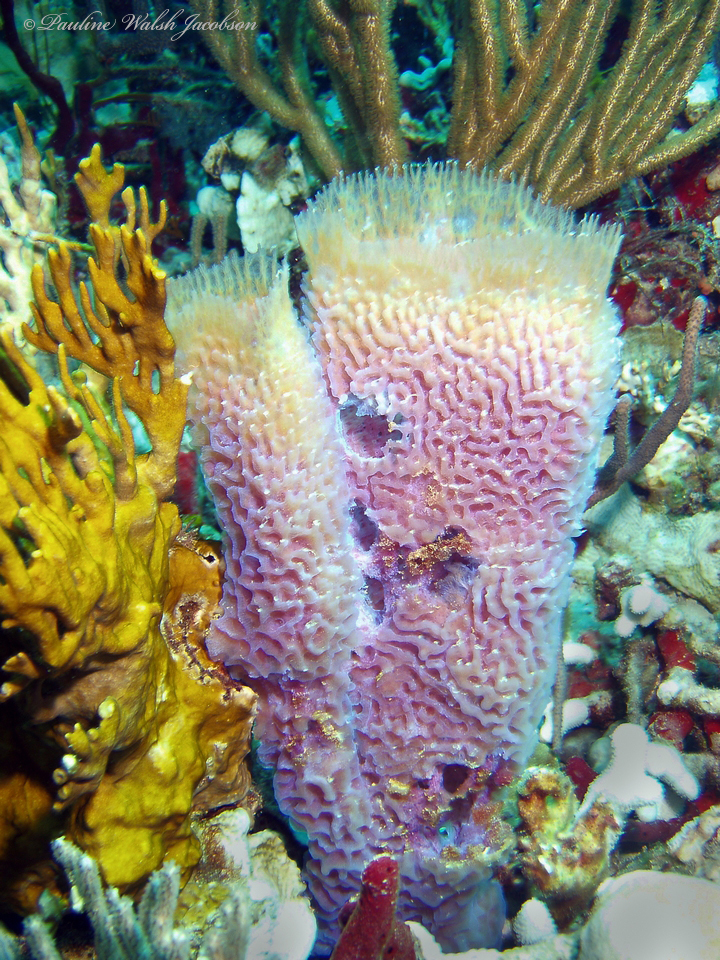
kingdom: Animalia
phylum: Porifera
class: Demospongiae
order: Haplosclerida
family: Callyspongiidae
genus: Callyspongia
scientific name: Callyspongia plicifera
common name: Azure vase sponge
